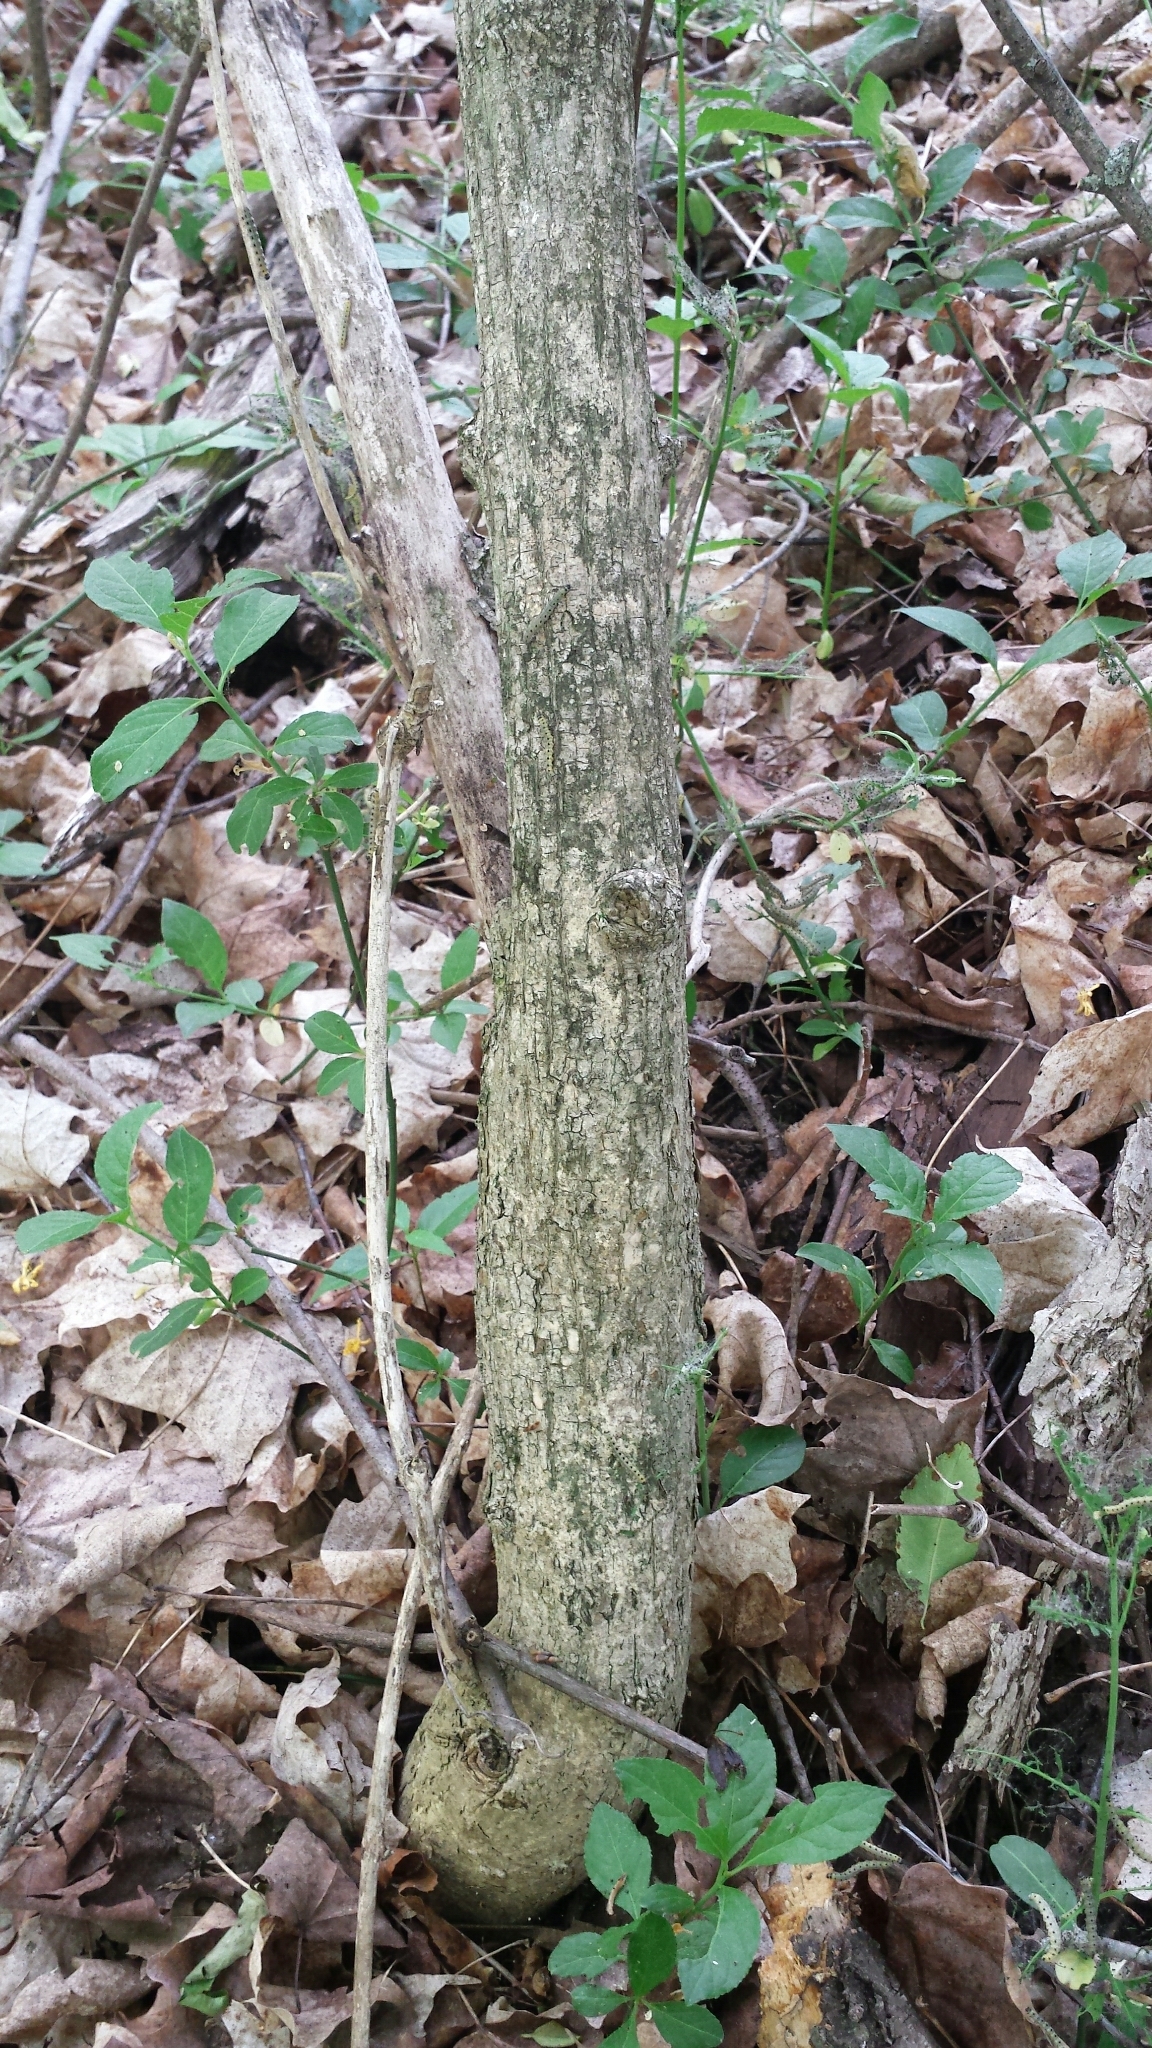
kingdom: Plantae
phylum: Tracheophyta
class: Magnoliopsida
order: Celastrales
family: Celastraceae
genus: Euonymus
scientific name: Euonymus europaeus
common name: Spindle
